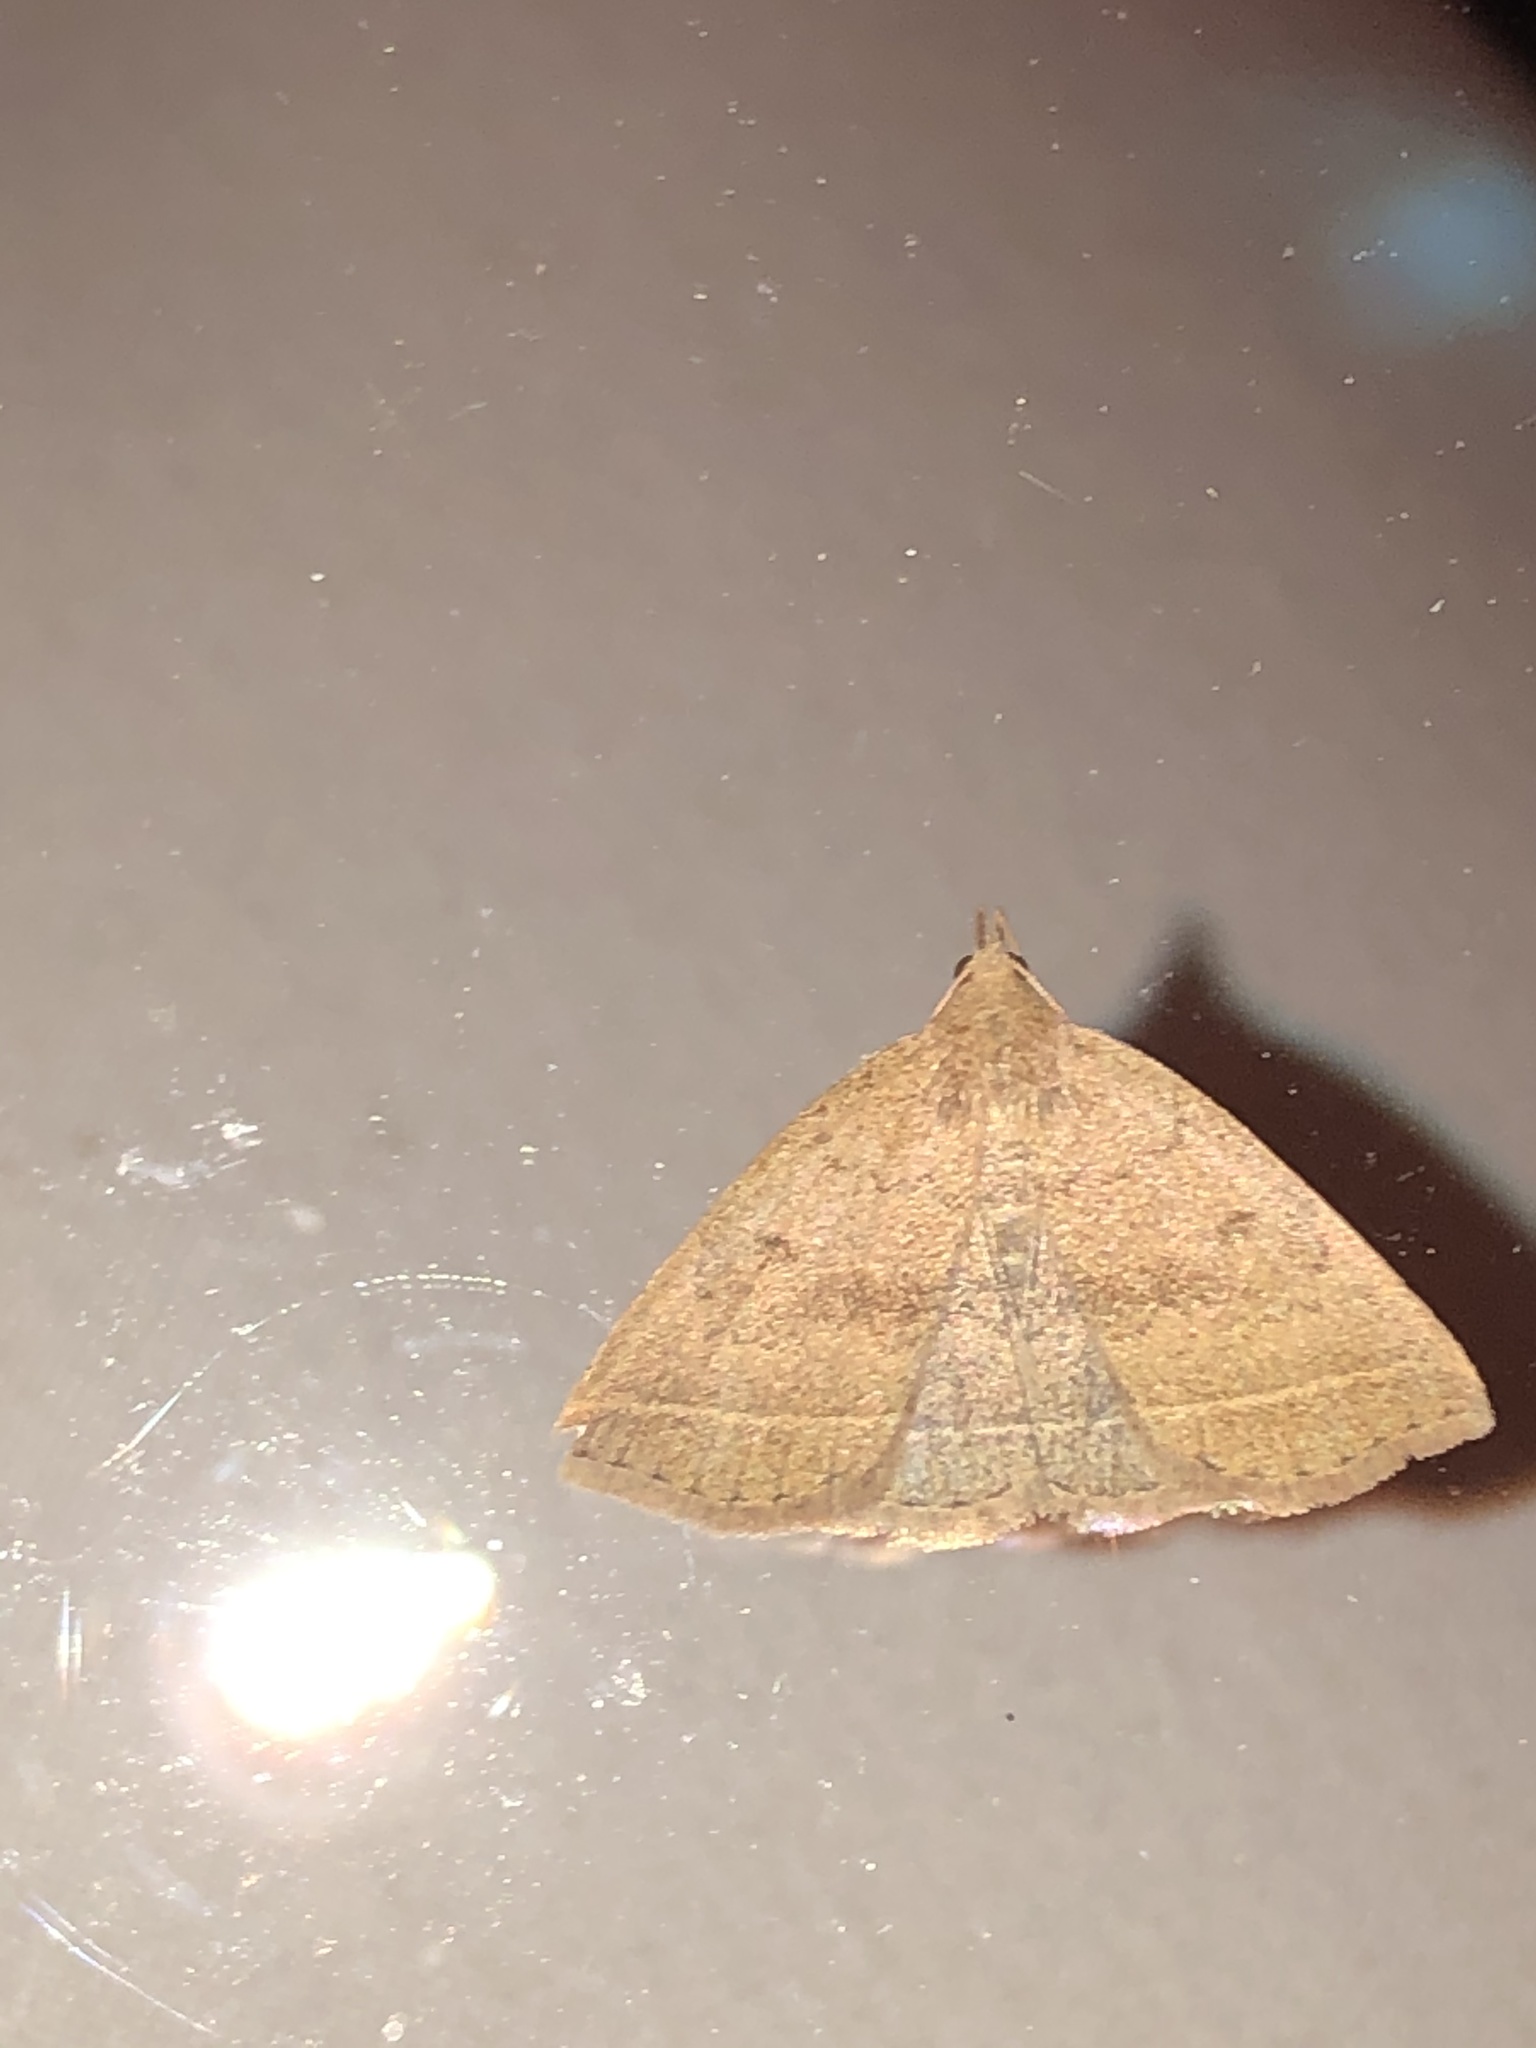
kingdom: Animalia
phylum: Arthropoda
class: Insecta
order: Lepidoptera
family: Erebidae
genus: Zanclognatha
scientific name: Zanclognatha jacchusalis
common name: Yellowish zanclognatha
